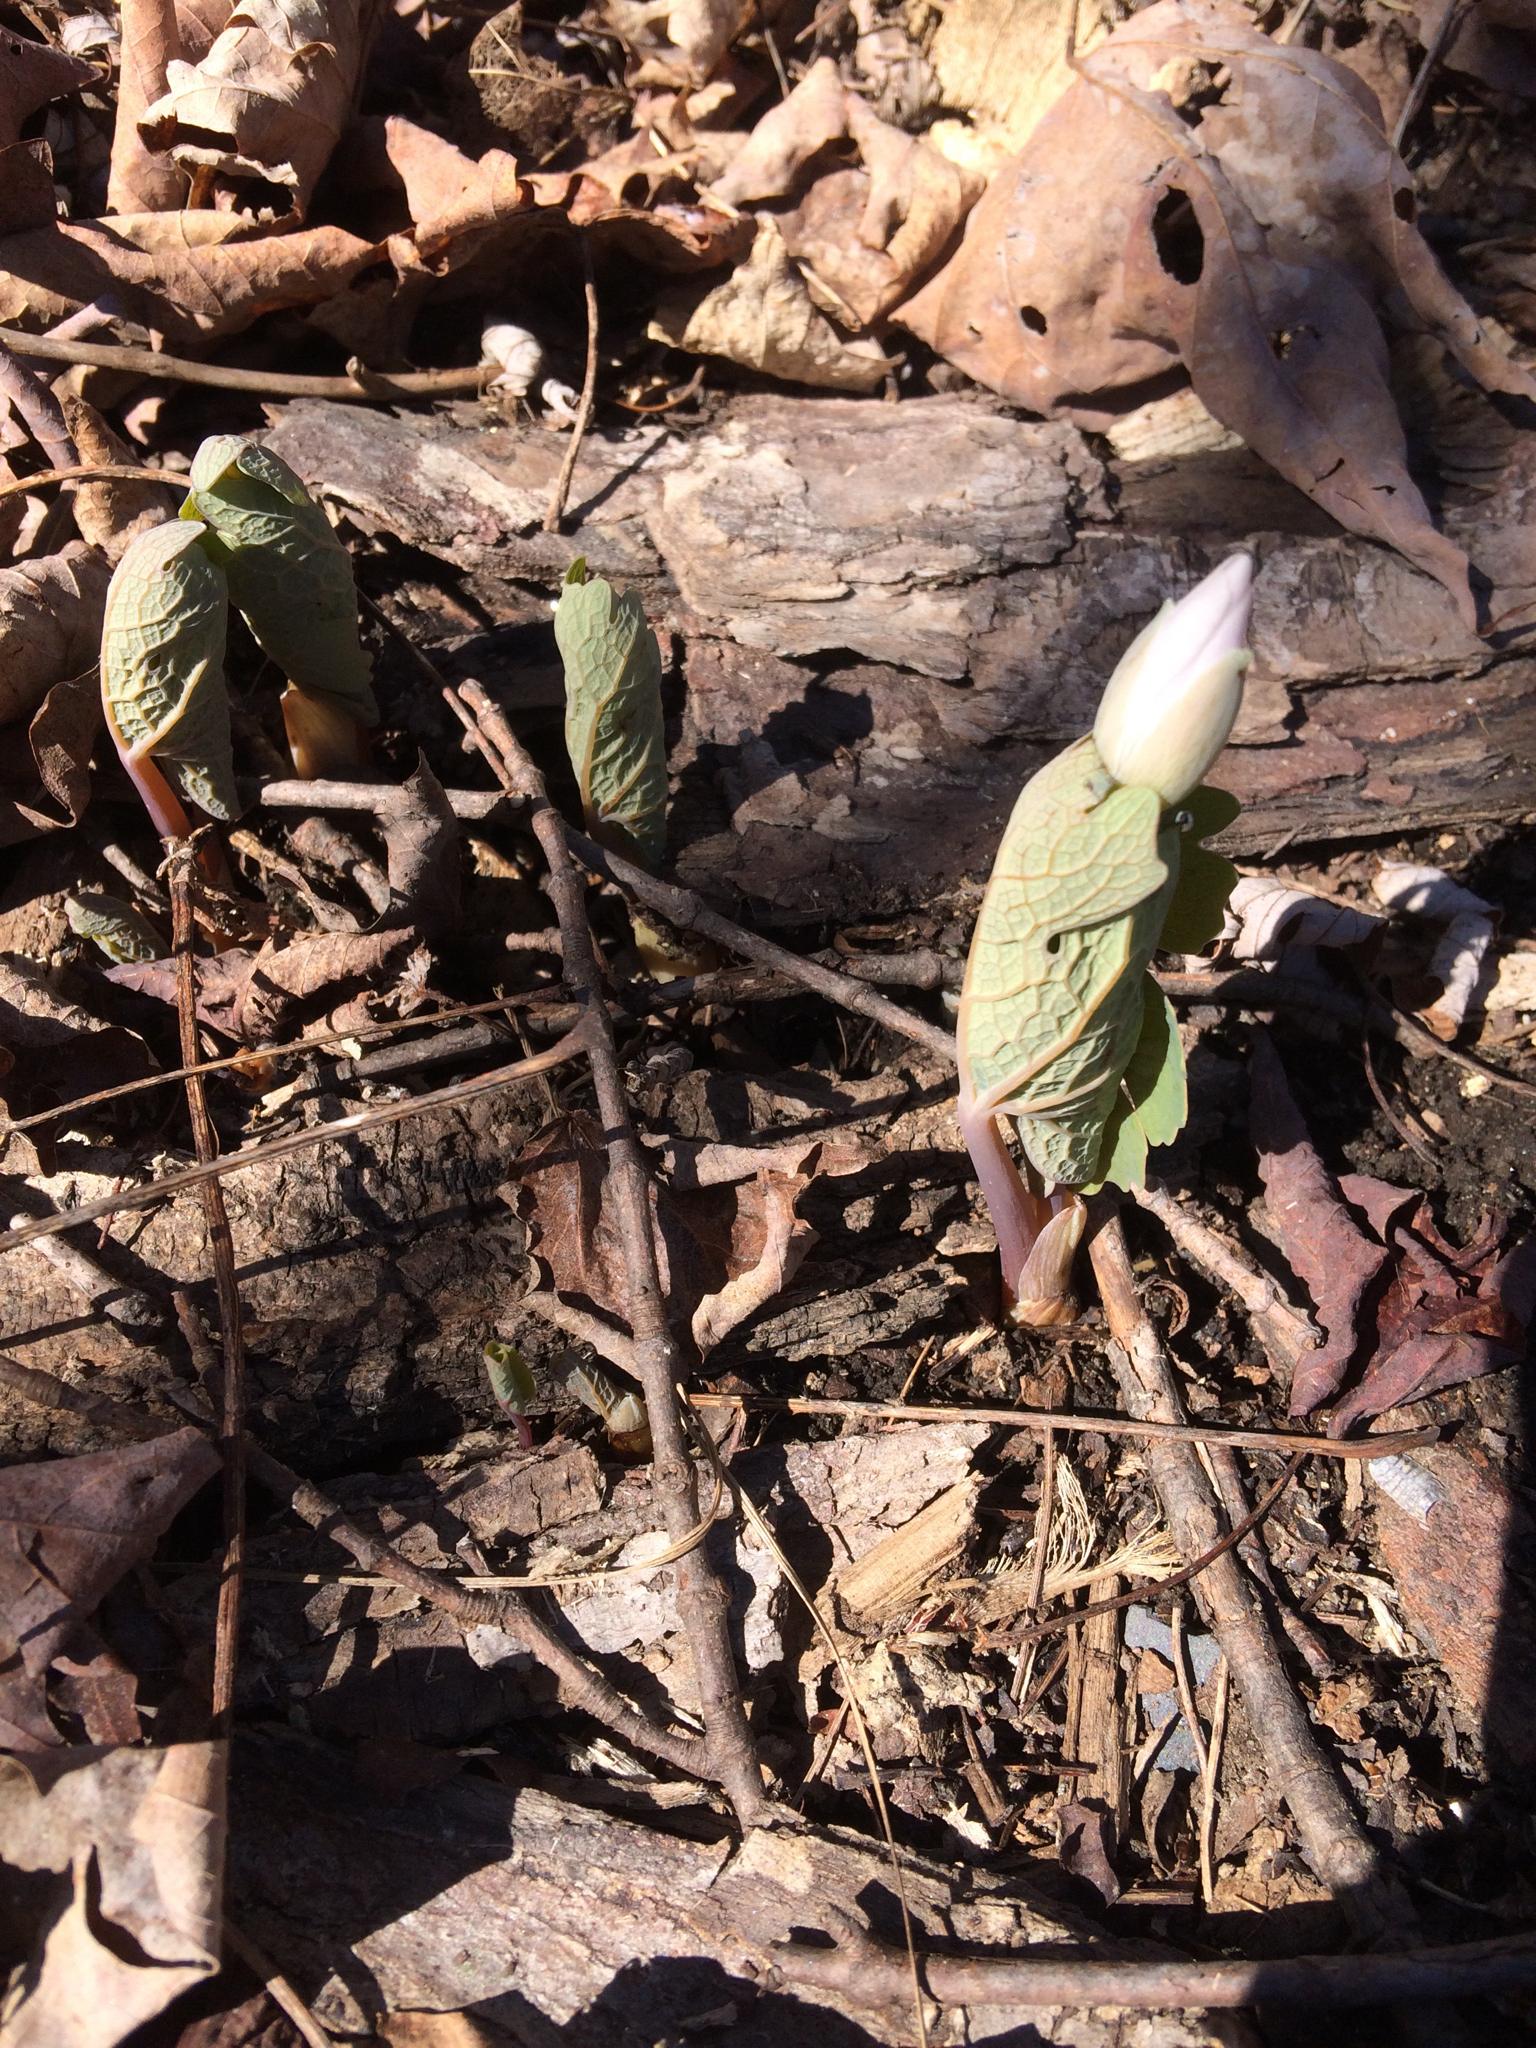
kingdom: Plantae
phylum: Tracheophyta
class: Magnoliopsida
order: Ranunculales
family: Papaveraceae
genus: Sanguinaria
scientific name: Sanguinaria canadensis
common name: Bloodroot
